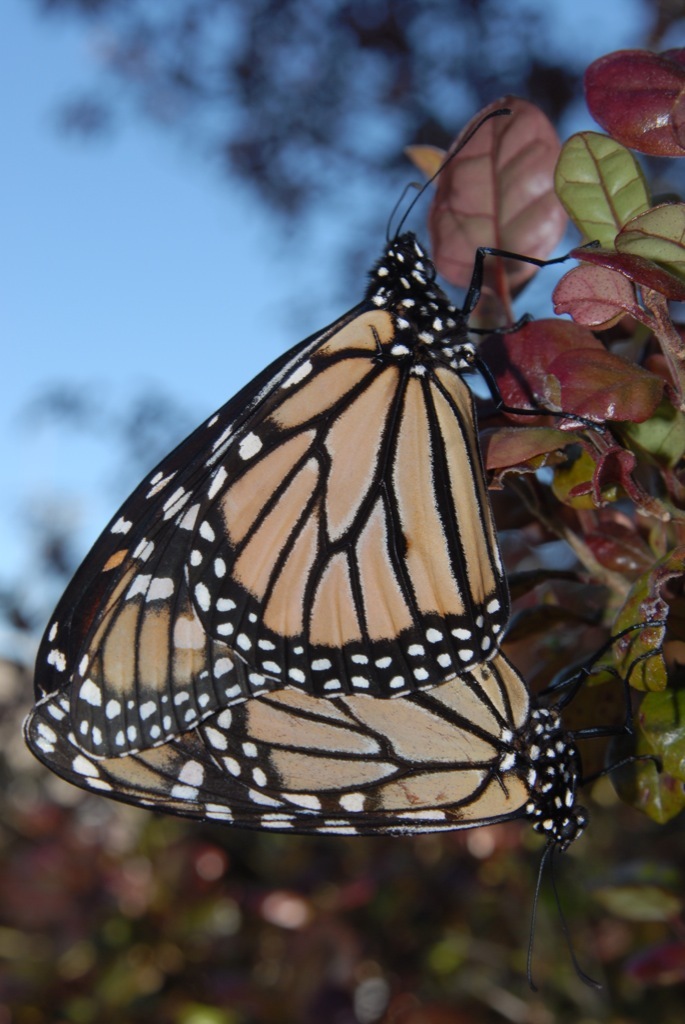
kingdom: Animalia
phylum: Arthropoda
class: Insecta
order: Lepidoptera
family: Nymphalidae
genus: Danaus
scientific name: Danaus plexippus
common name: Monarch
